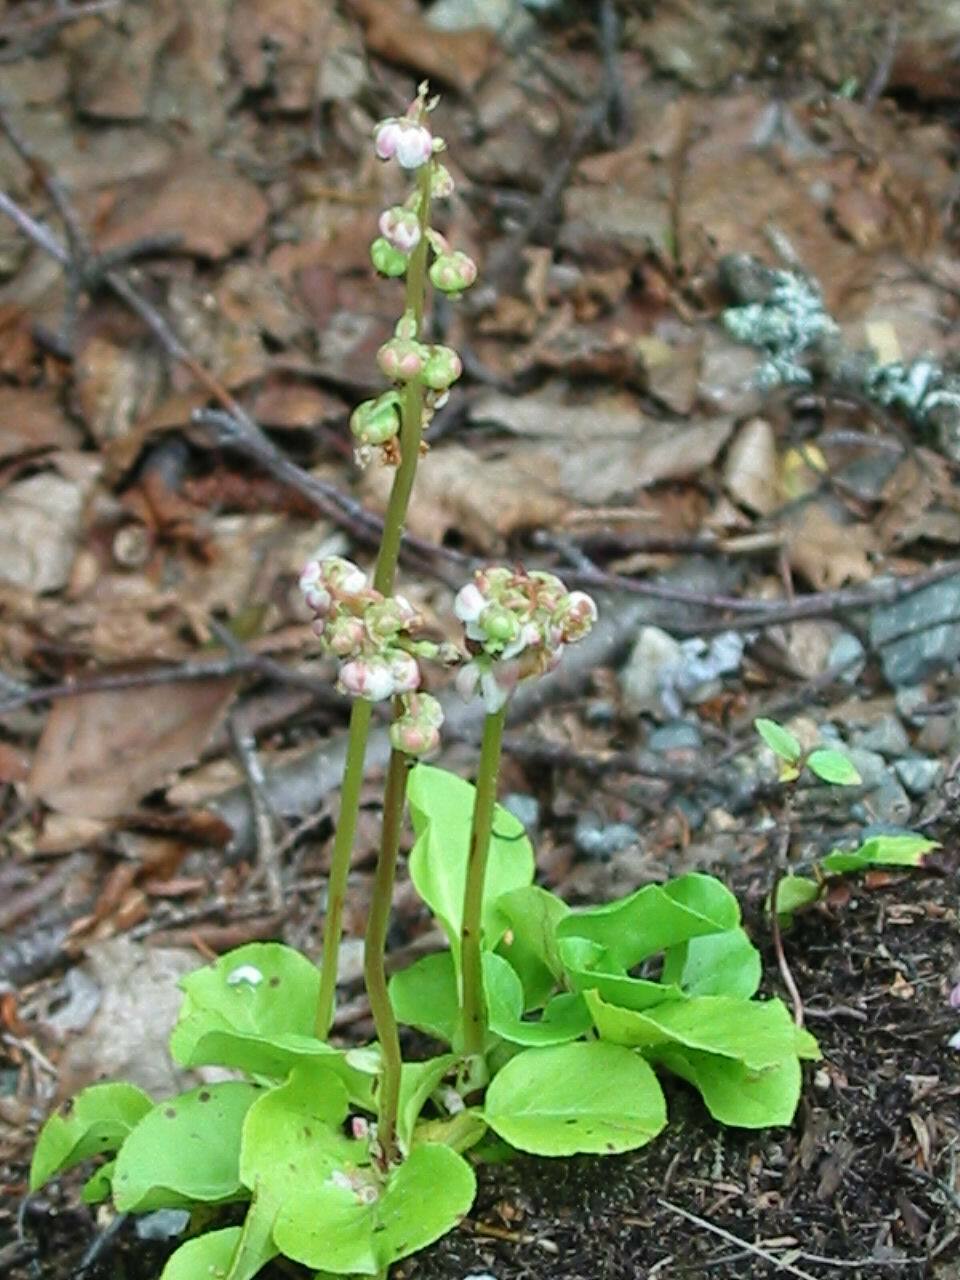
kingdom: Plantae
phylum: Tracheophyta
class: Magnoliopsida
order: Ericales
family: Ericaceae
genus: Pyrola
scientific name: Pyrola minor
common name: Common wintergreen
